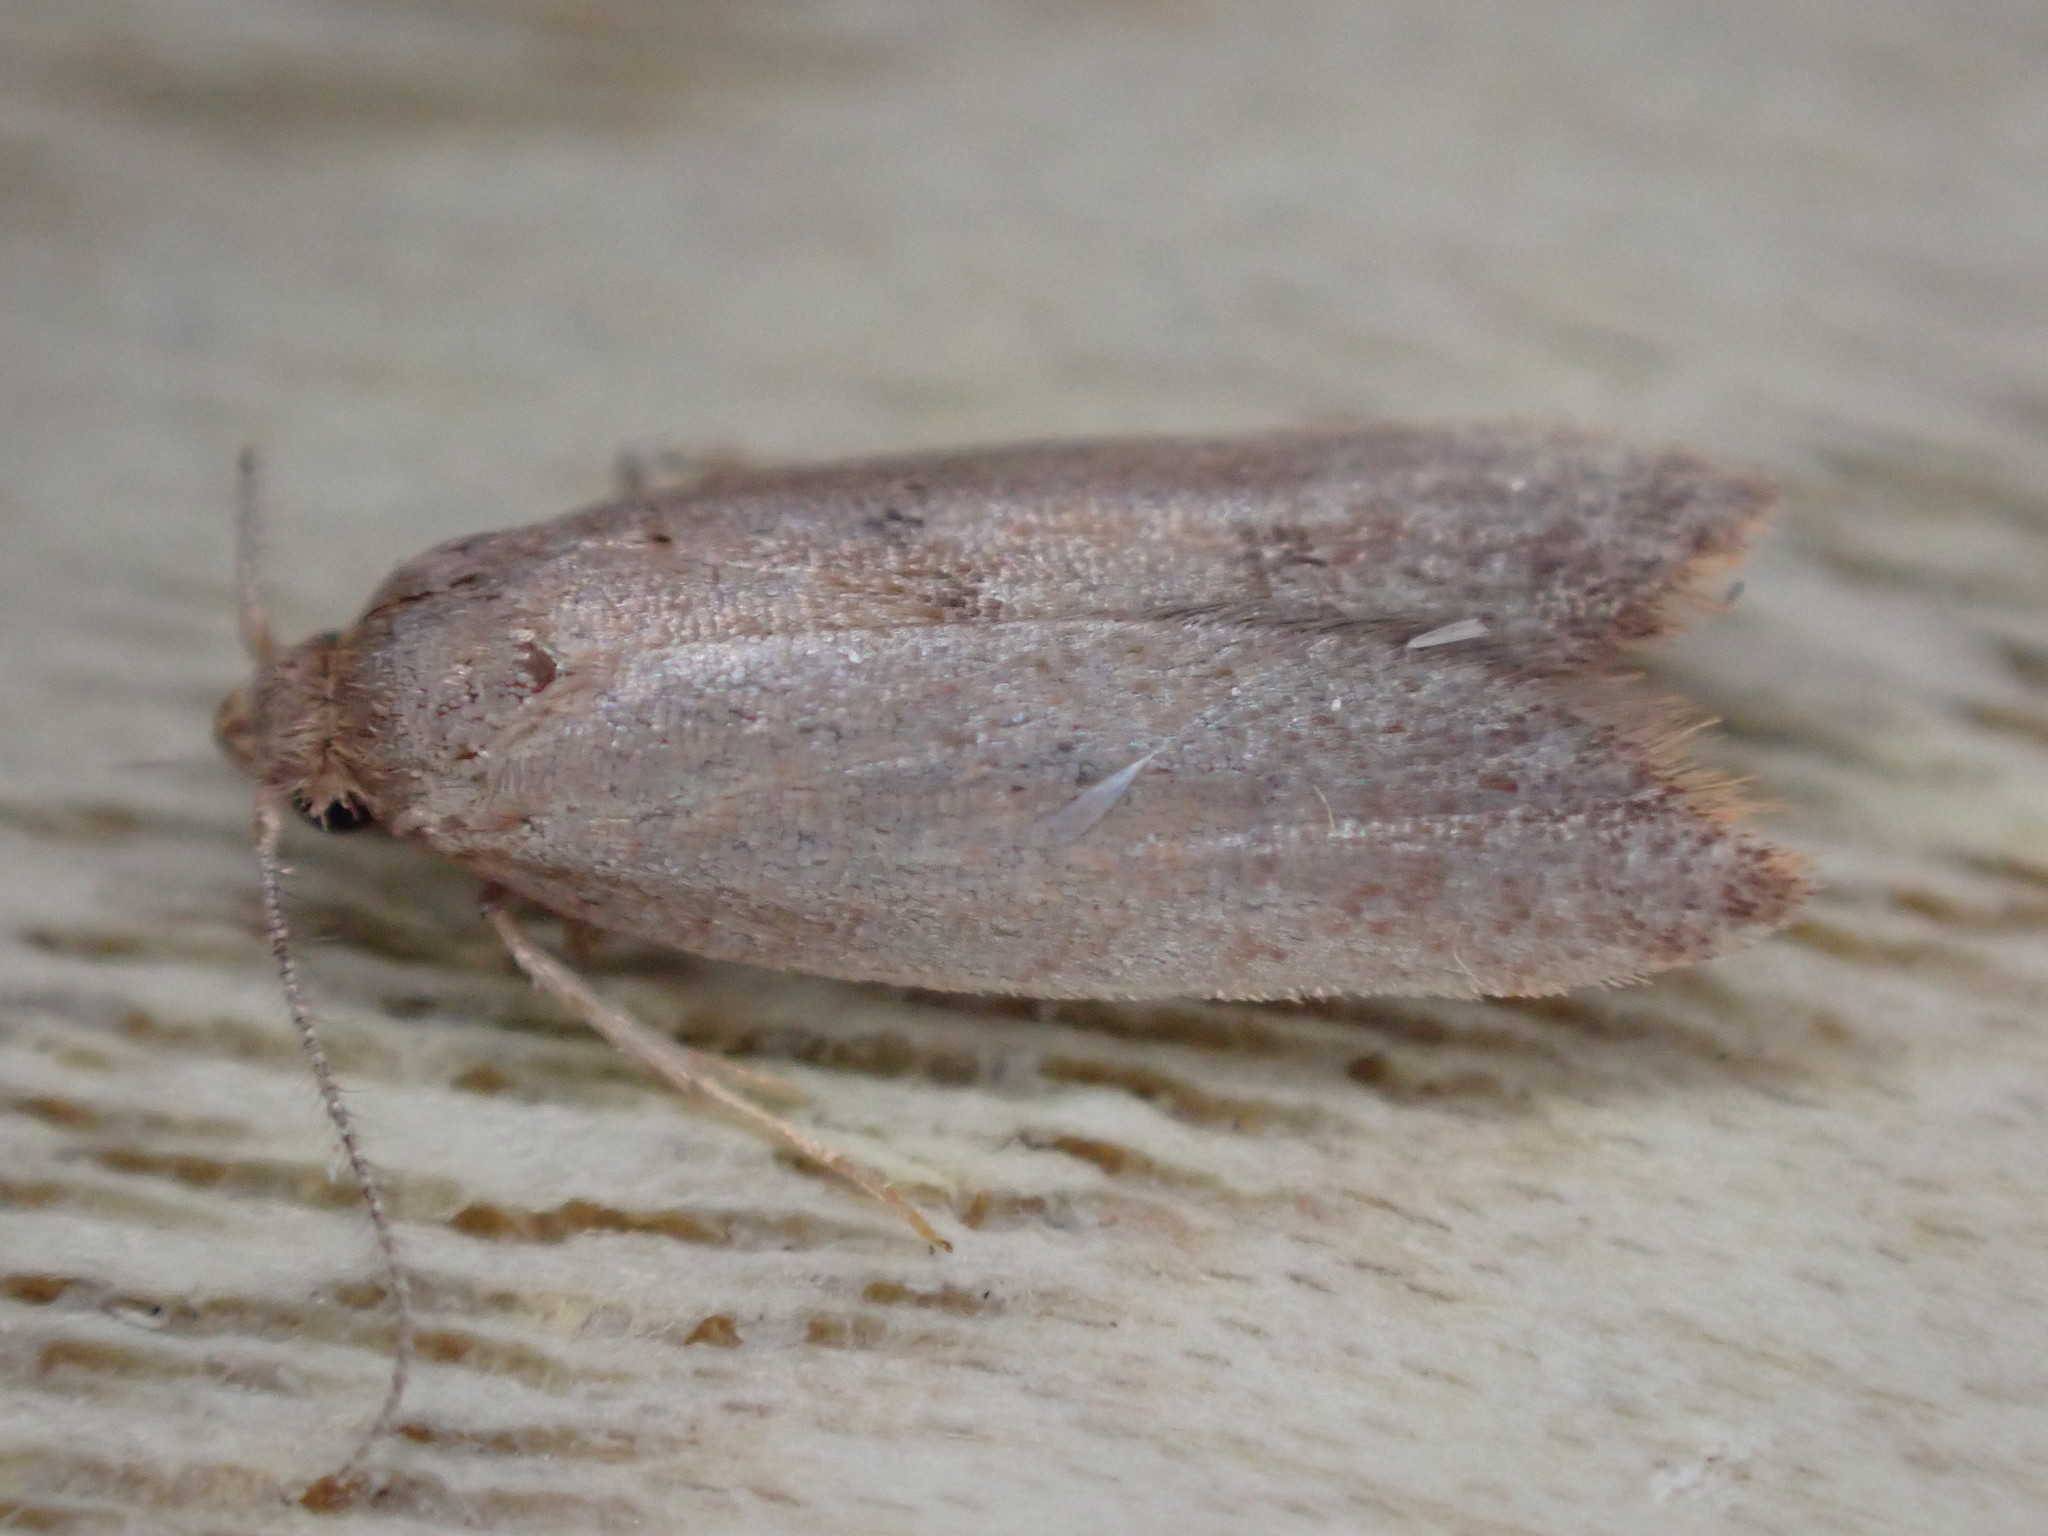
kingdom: Animalia
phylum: Arthropoda
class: Insecta
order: Lepidoptera
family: Oecophoridae
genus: Tachystola
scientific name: Tachystola acroxantha
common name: Ruddy streak
